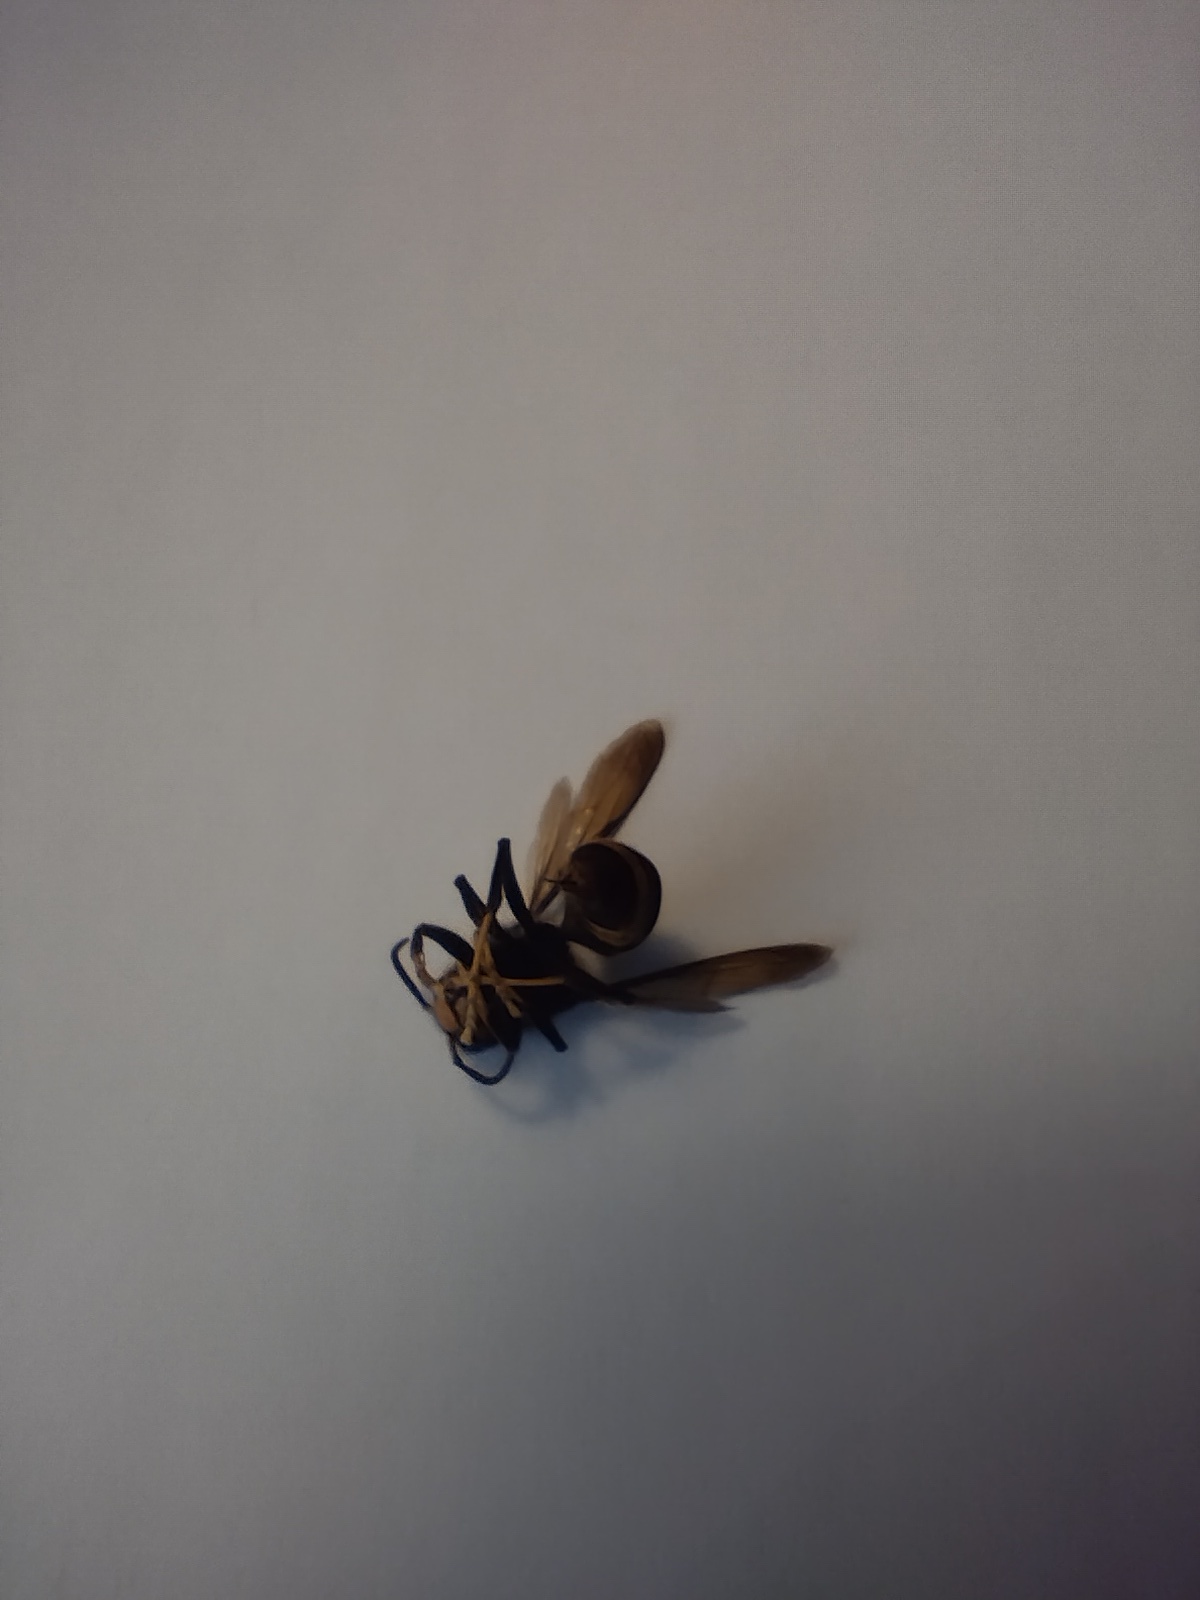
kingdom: Animalia
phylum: Arthropoda
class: Insecta
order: Hymenoptera
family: Vespidae
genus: Vespa
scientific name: Vespa velutina
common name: Asian hornet
